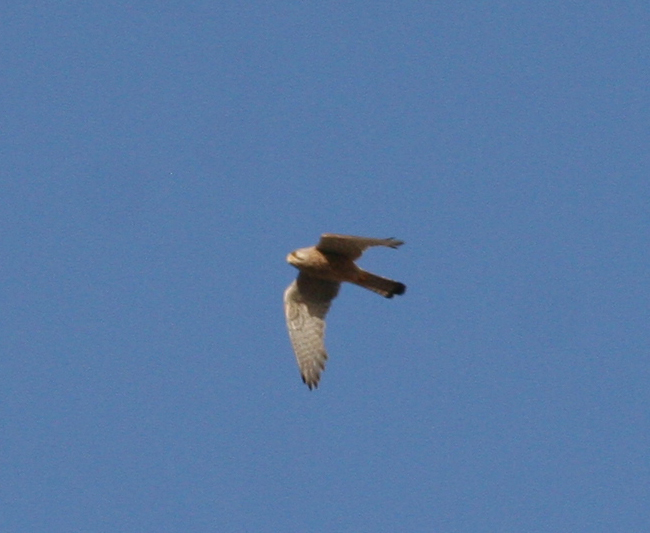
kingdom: Animalia
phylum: Chordata
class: Aves
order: Falconiformes
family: Falconidae
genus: Falco
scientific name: Falco tinnunculus
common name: Common kestrel
